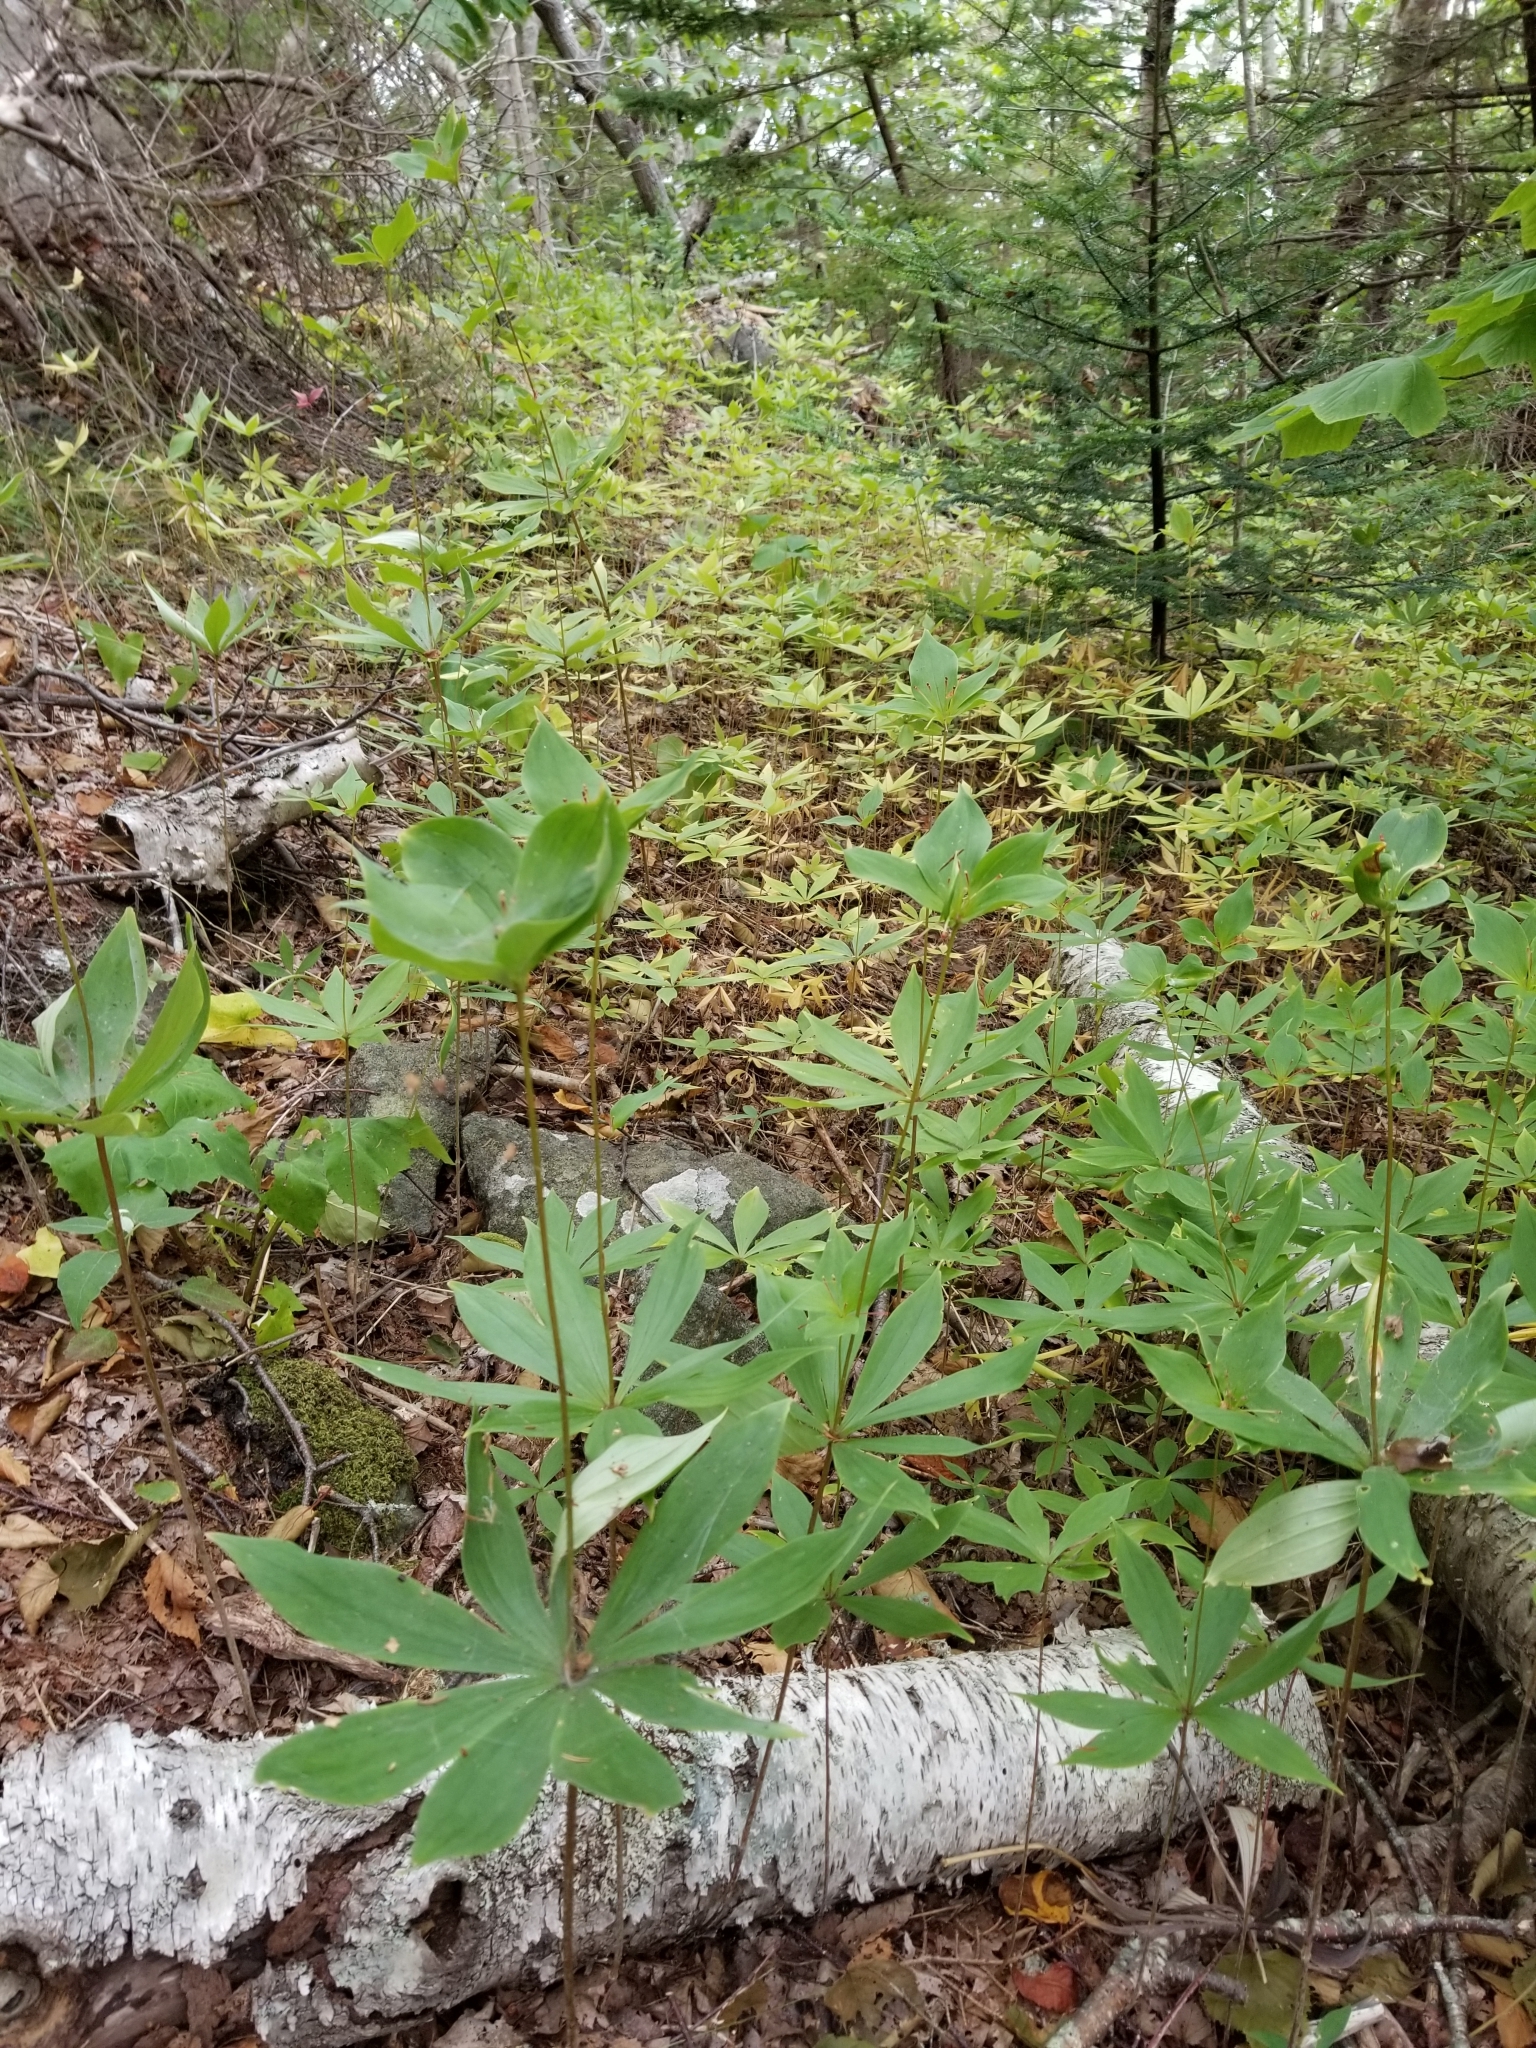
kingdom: Plantae
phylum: Tracheophyta
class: Liliopsida
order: Liliales
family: Liliaceae
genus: Medeola
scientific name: Medeola virginiana
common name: Indian cucumber-root
